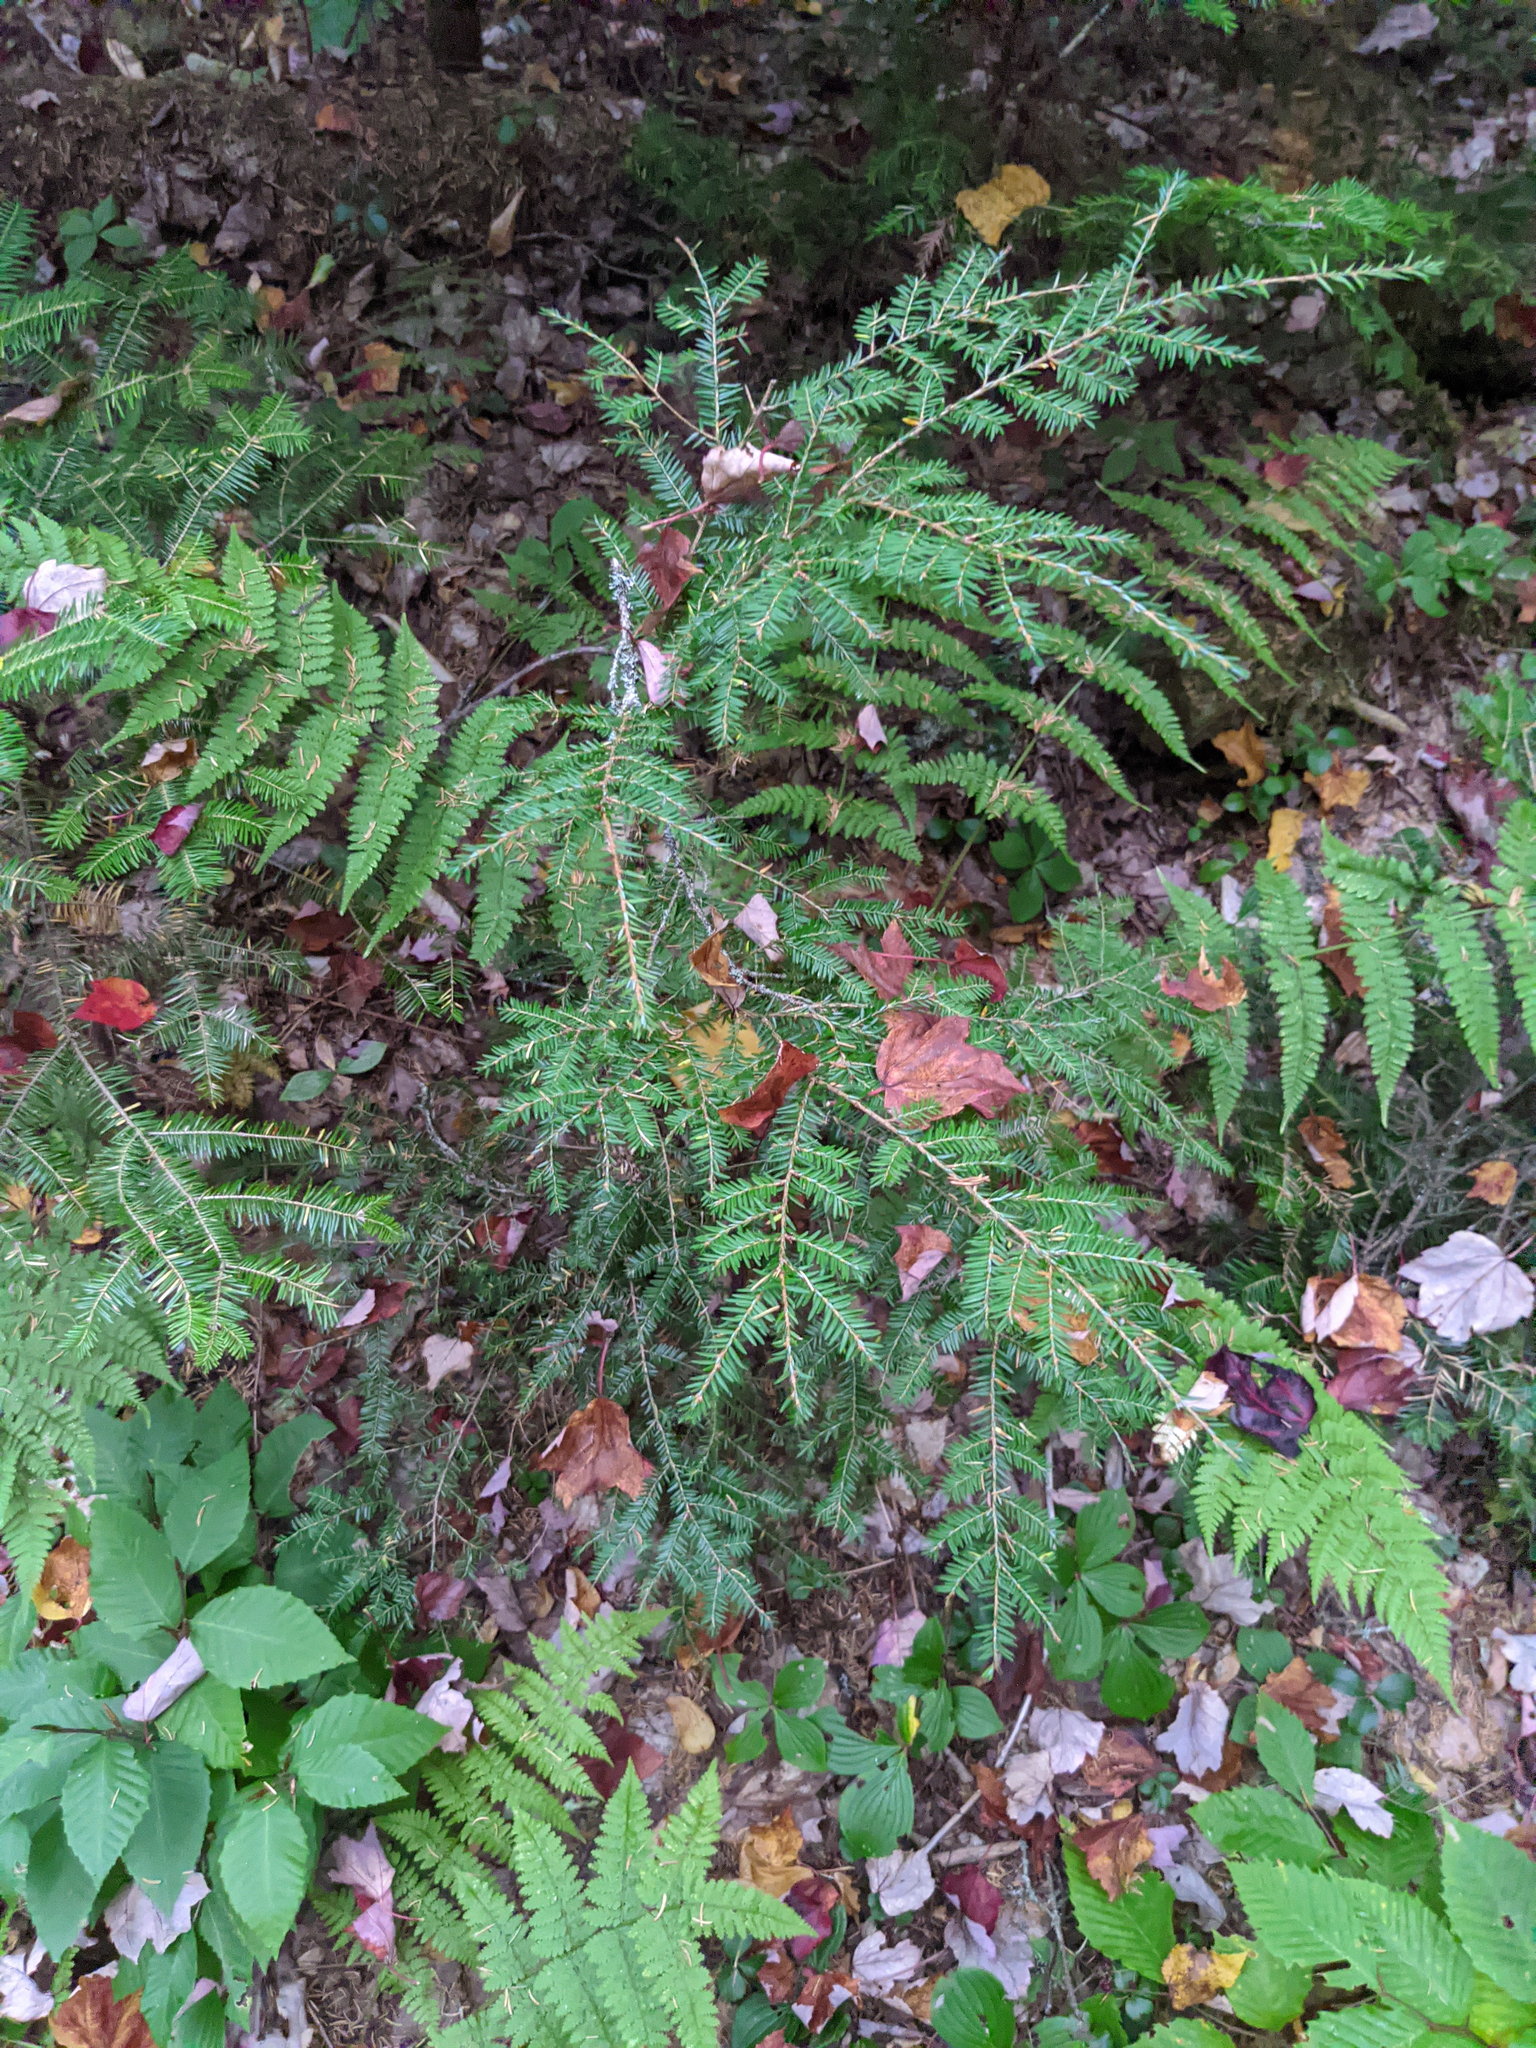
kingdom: Plantae
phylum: Tracheophyta
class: Pinopsida
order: Pinales
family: Pinaceae
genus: Tsuga
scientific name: Tsuga canadensis
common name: Eastern hemlock
